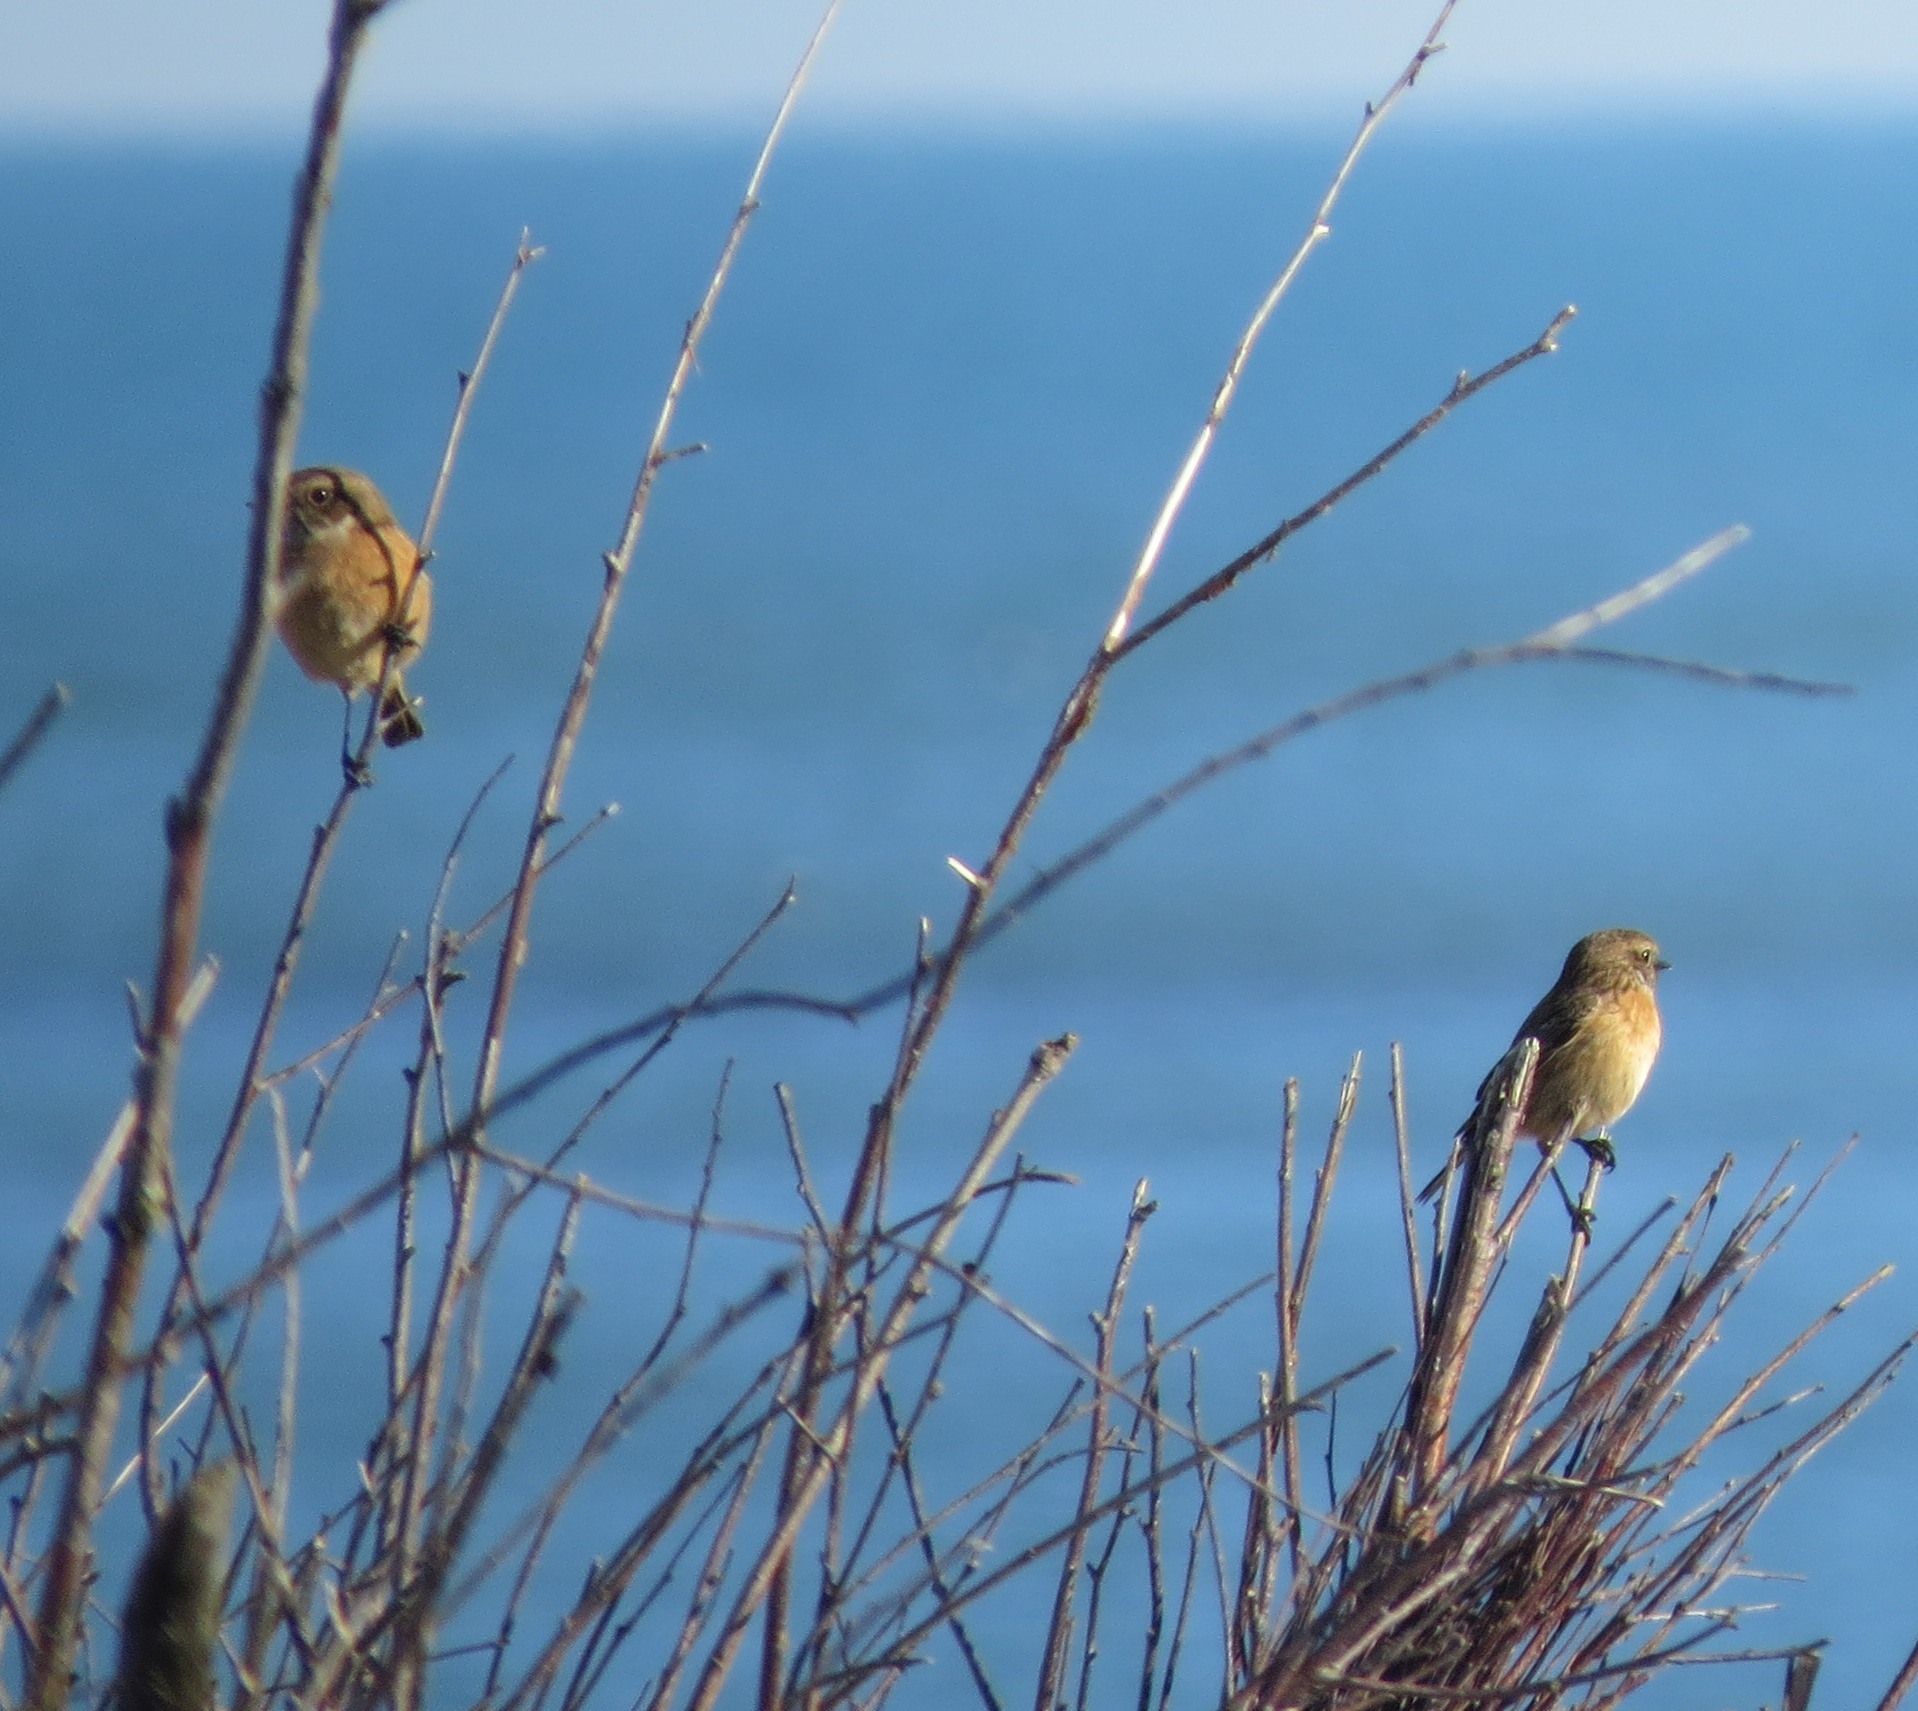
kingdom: Animalia
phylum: Chordata
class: Aves
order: Passeriformes
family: Muscicapidae
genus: Saxicola
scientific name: Saxicola rubicola
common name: European stonechat
